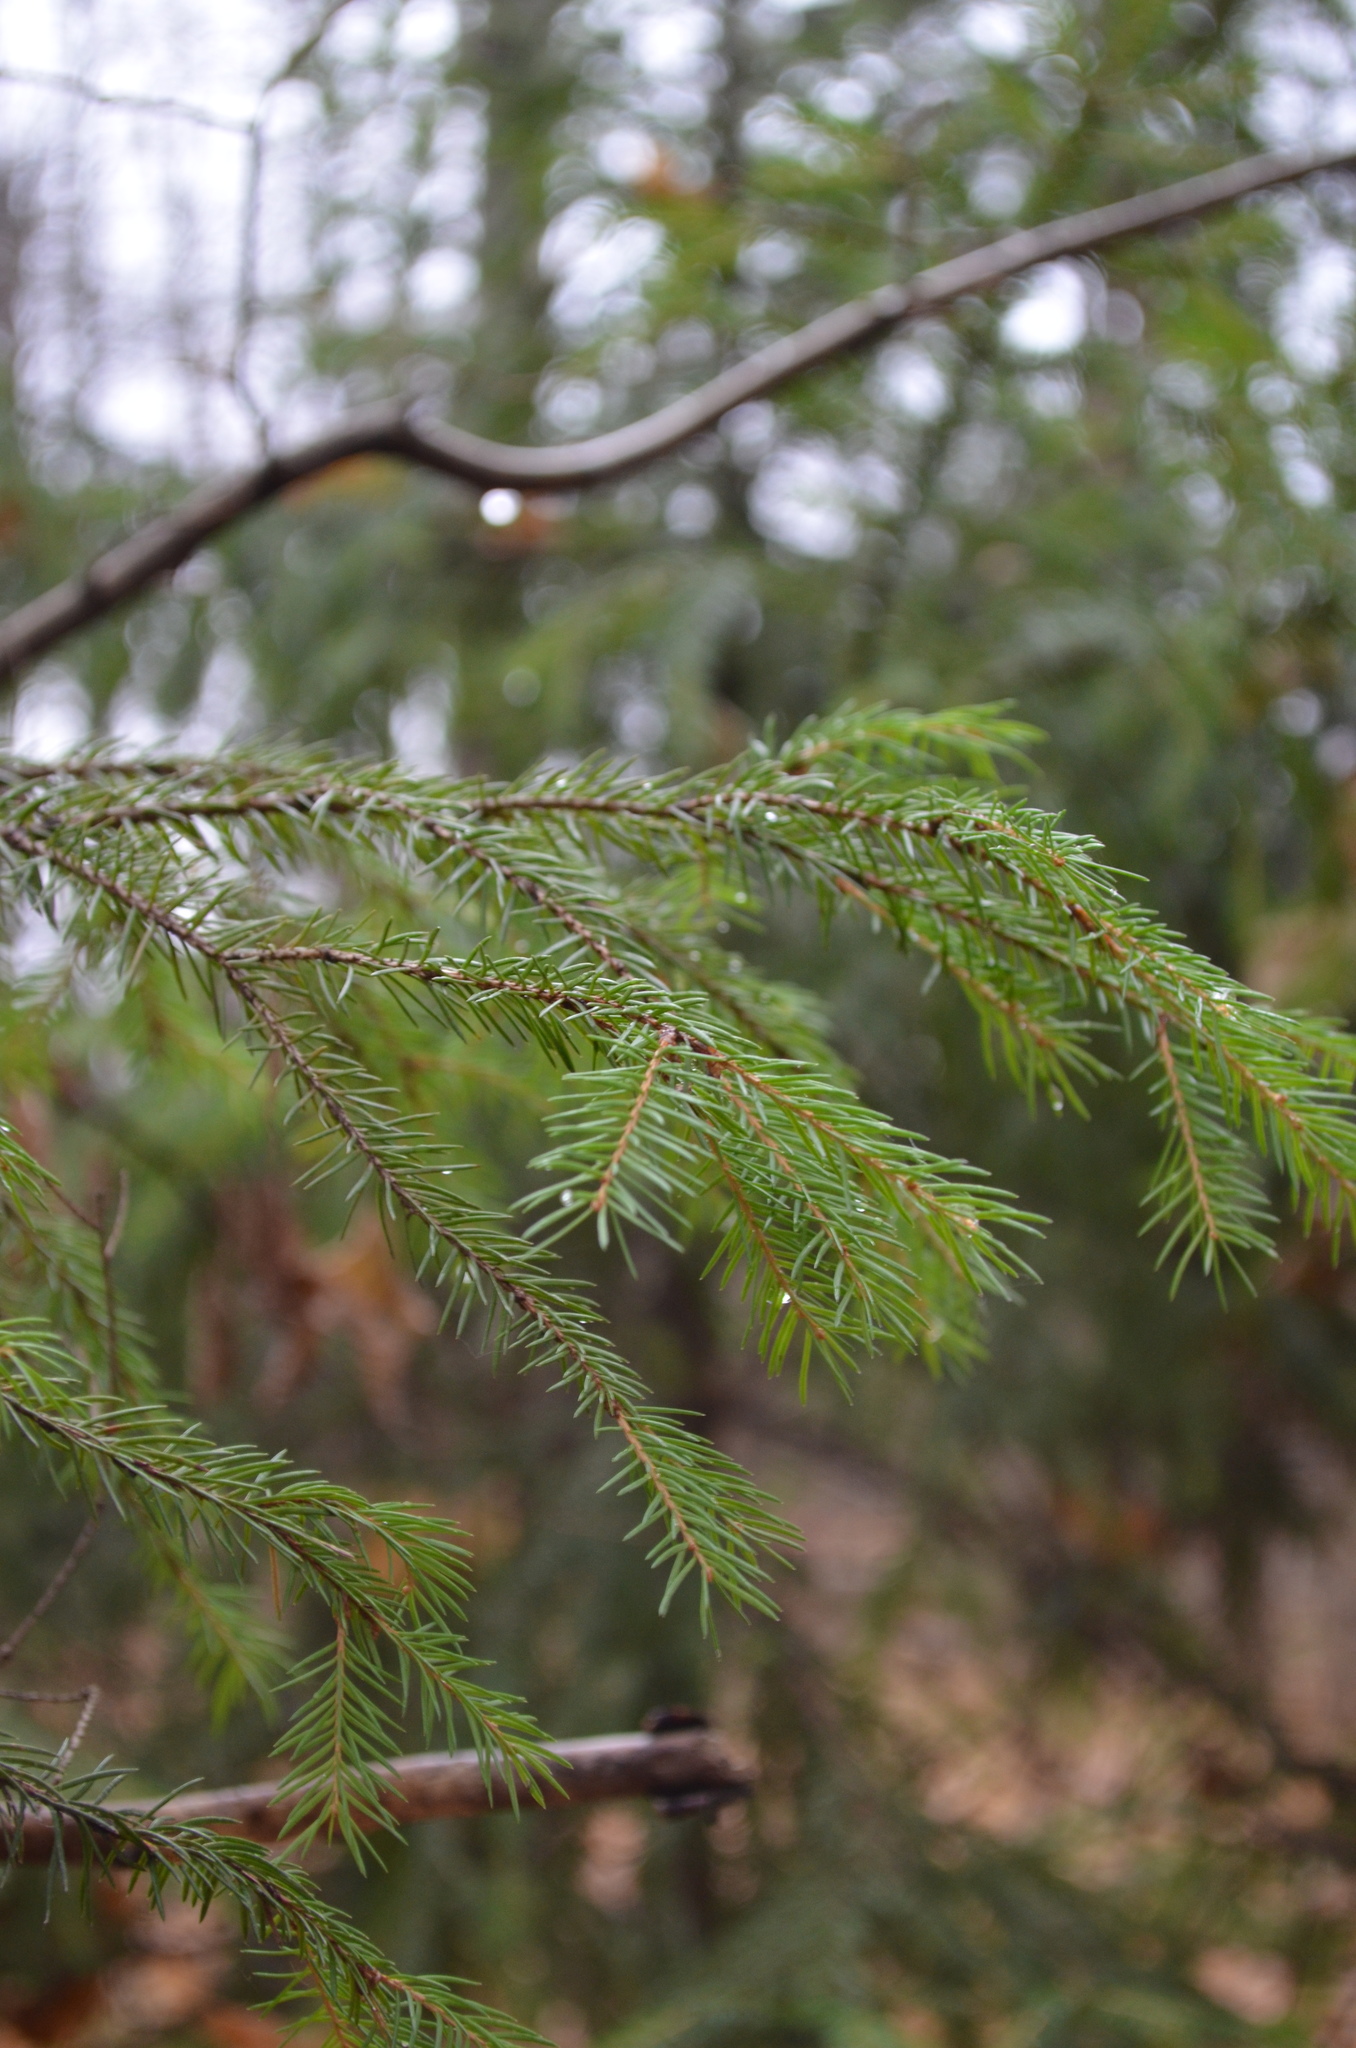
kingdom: Plantae
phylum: Tracheophyta
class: Pinopsida
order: Pinales
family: Pinaceae
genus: Picea
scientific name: Picea abies
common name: Norway spruce
